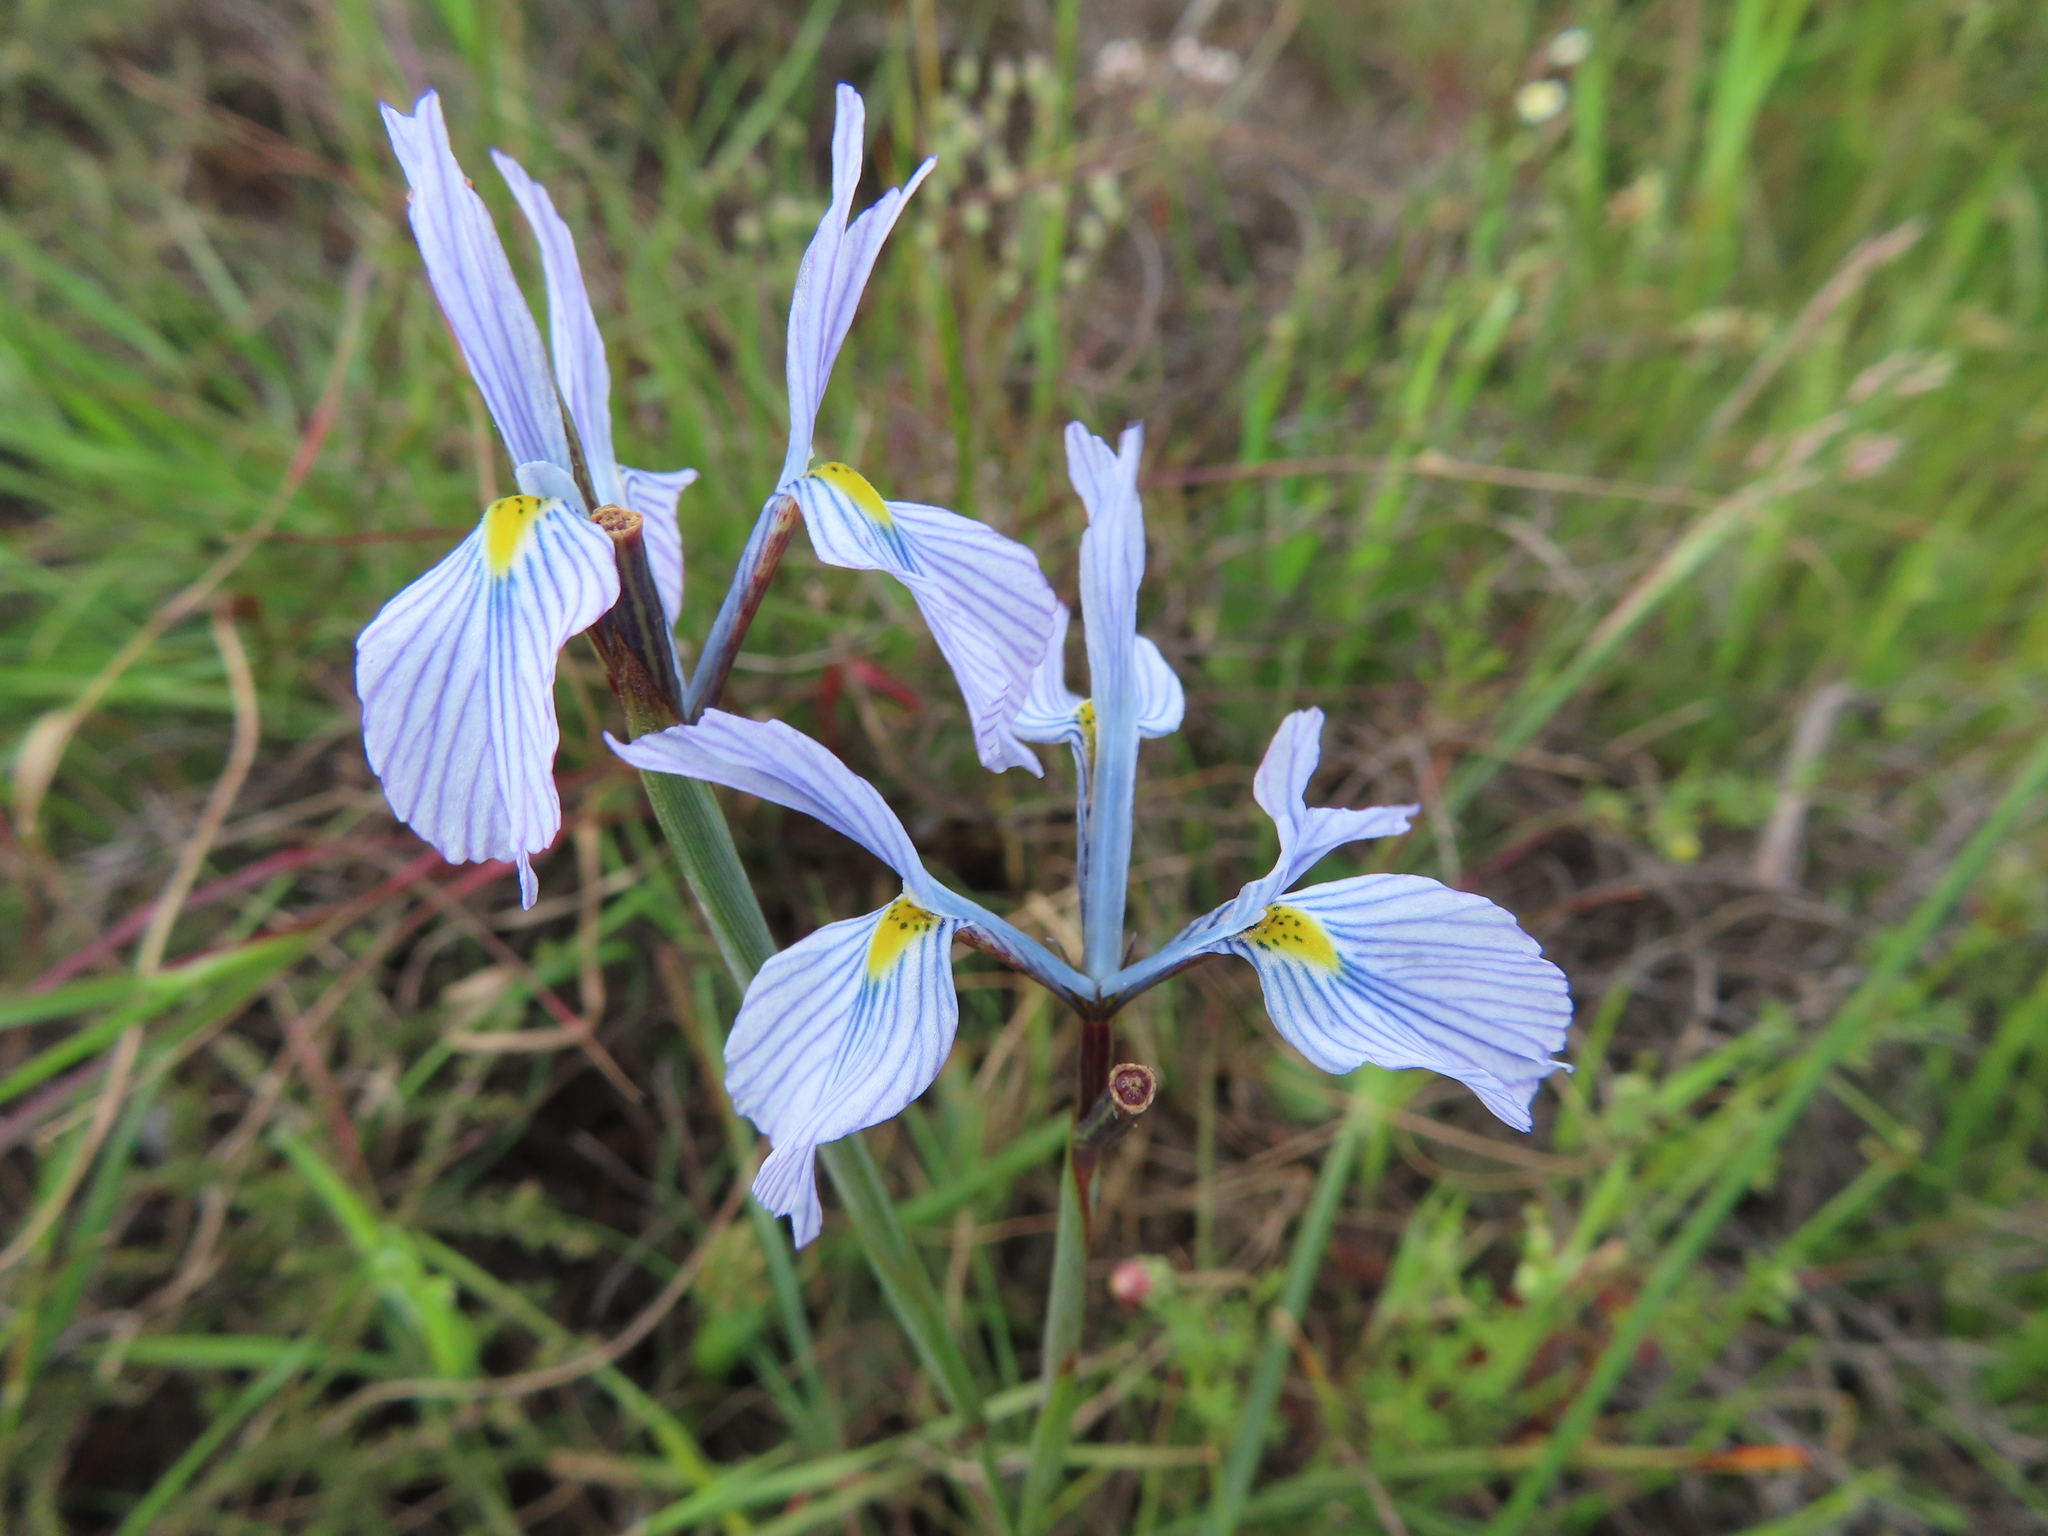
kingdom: Plantae
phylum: Tracheophyta
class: Liliopsida
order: Asparagales
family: Iridaceae
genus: Moraea
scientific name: Moraea ogamana
